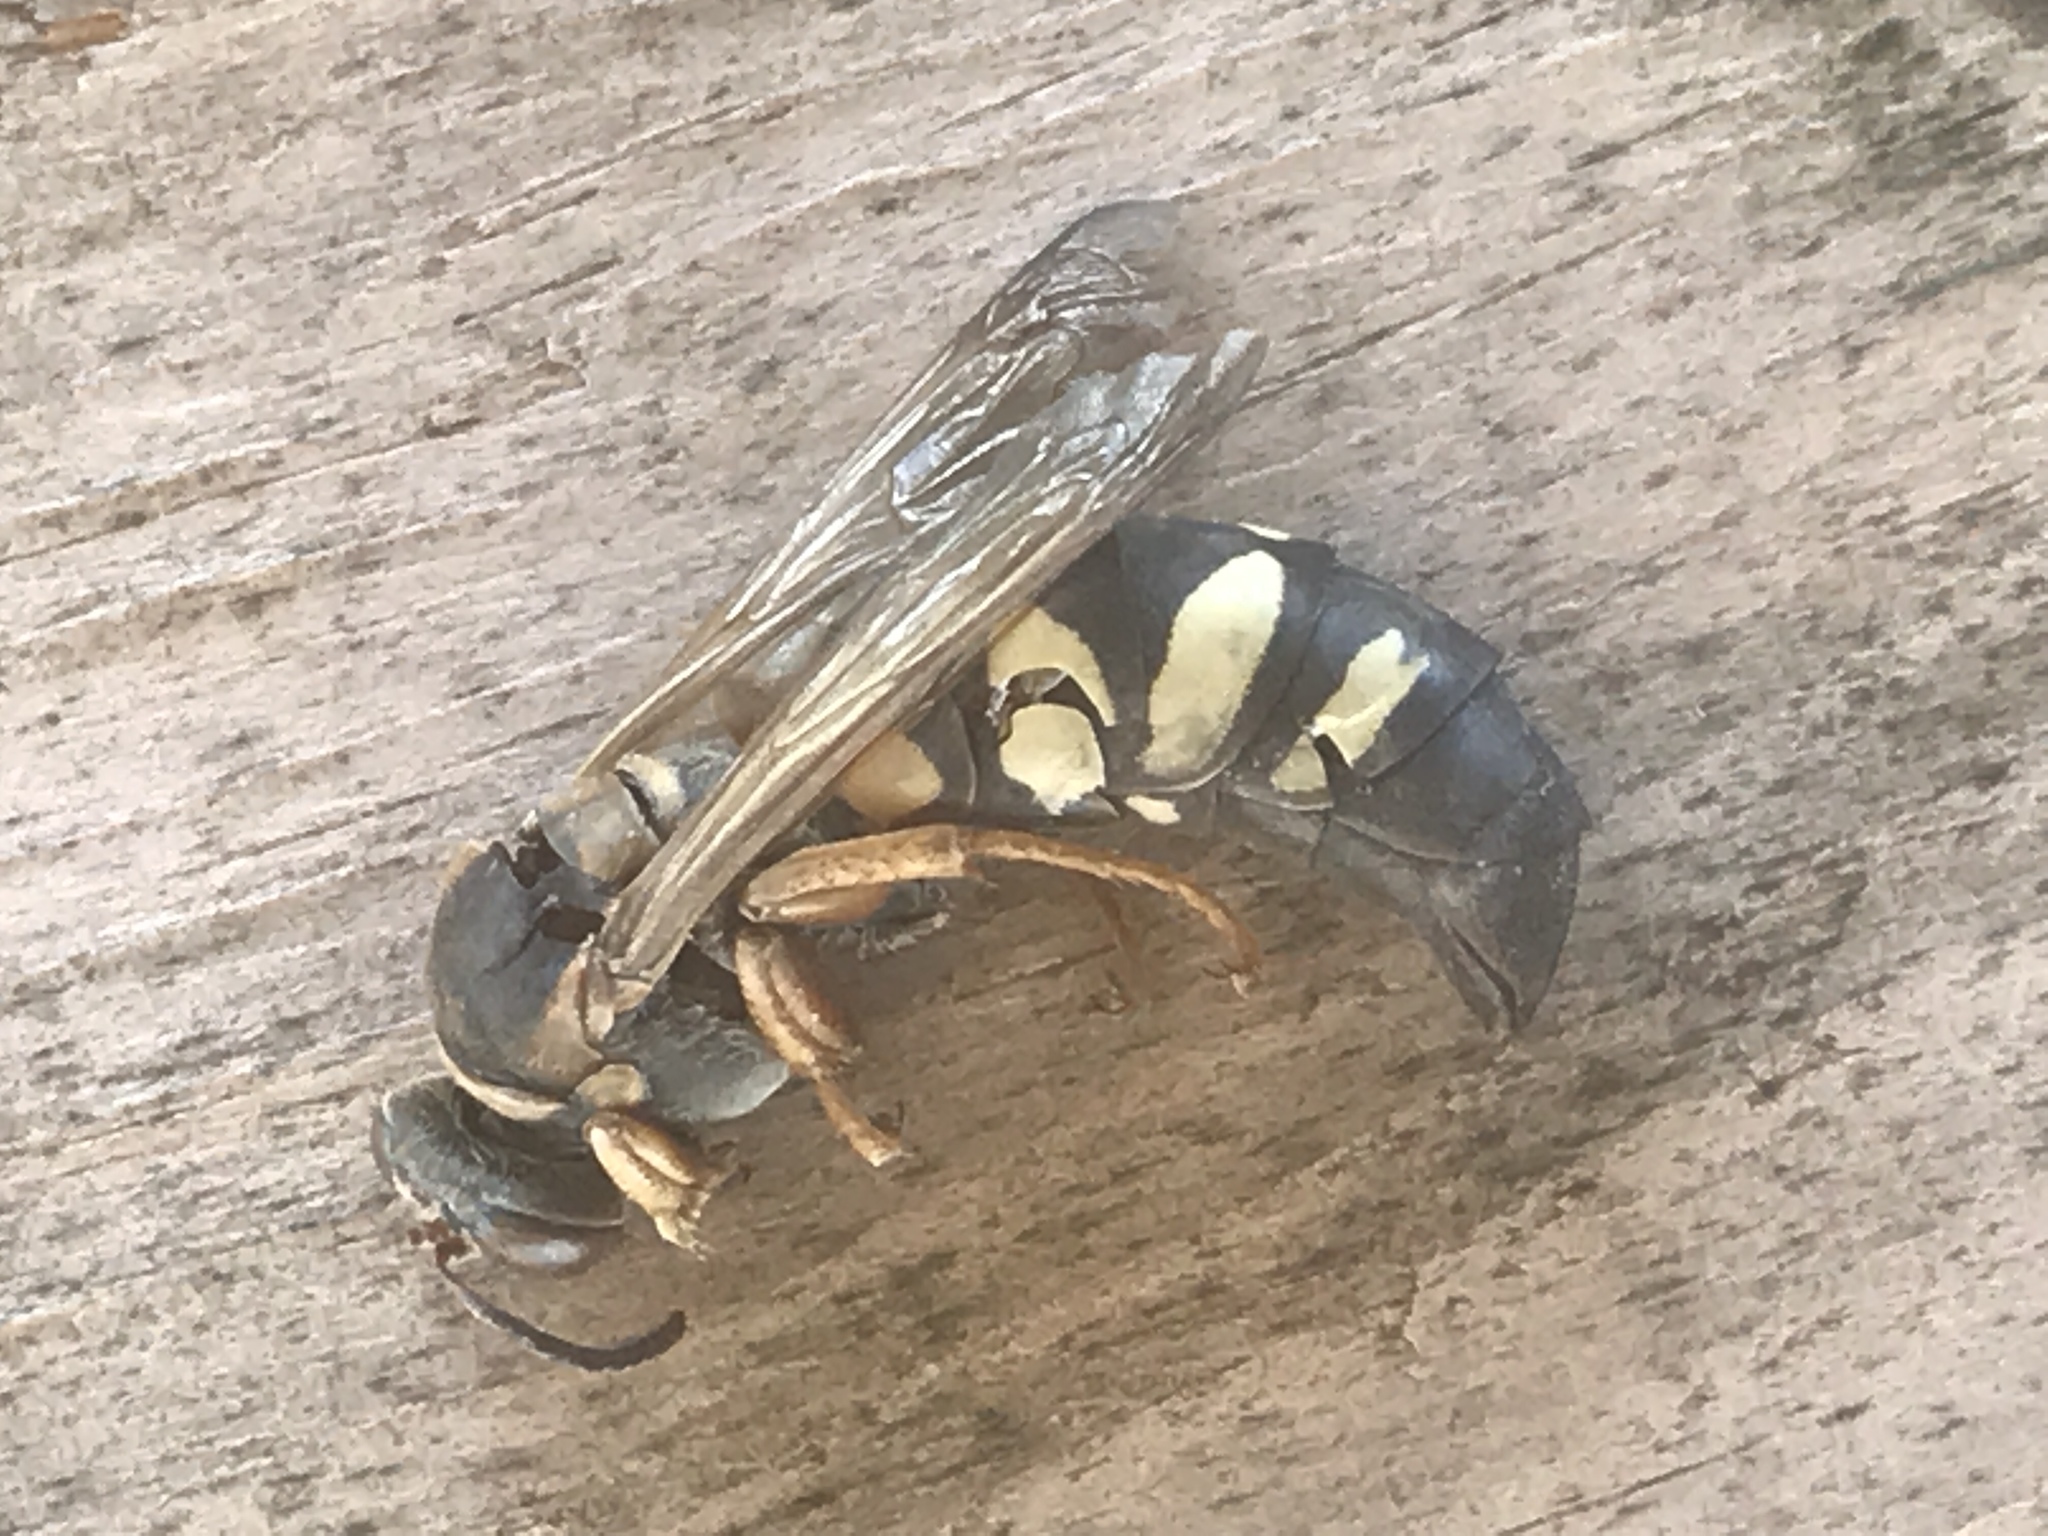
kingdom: Animalia
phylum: Arthropoda
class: Insecta
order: Hymenoptera
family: Crabronidae
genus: Stizus
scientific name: Stizus brevipennis
